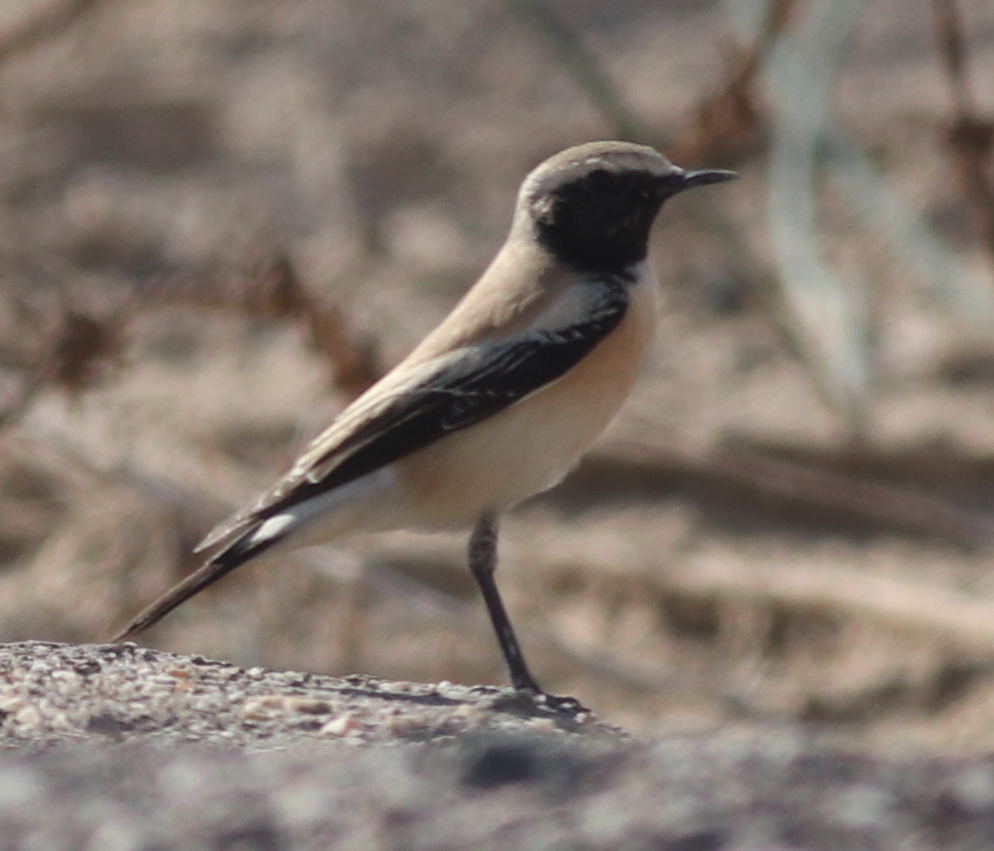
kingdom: Animalia
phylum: Chordata
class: Aves
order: Passeriformes
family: Muscicapidae
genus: Oenanthe
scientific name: Oenanthe deserti
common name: Desert wheatear
